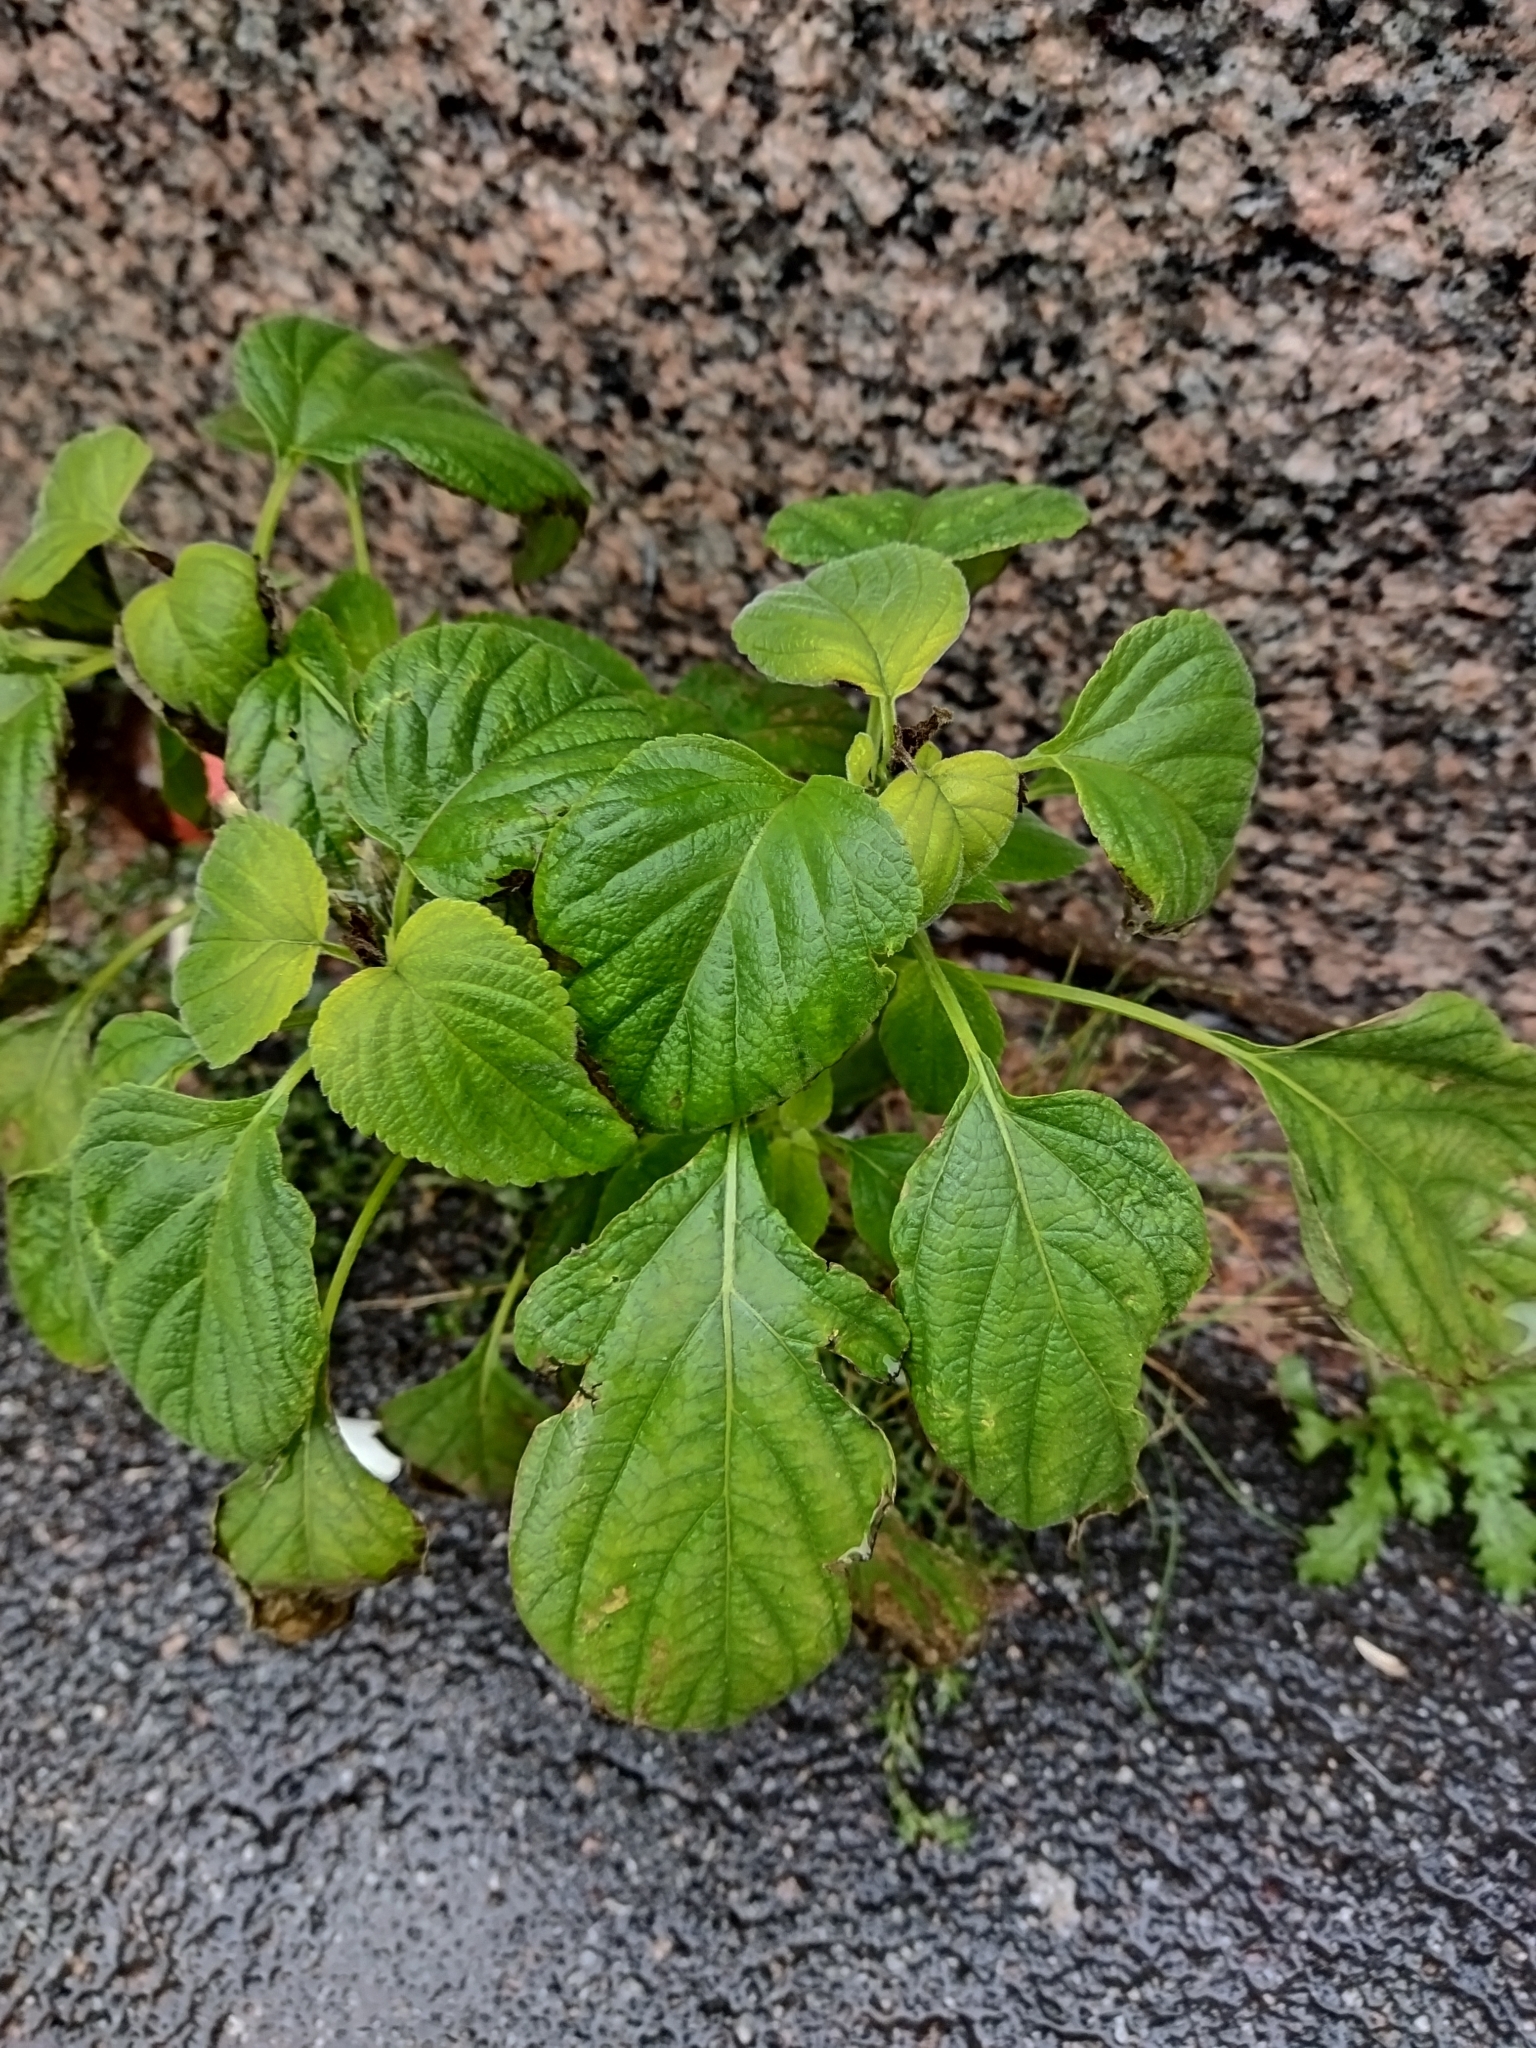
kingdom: Plantae
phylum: Tracheophyta
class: Magnoliopsida
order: Lamiales
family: Lamiaceae
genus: Salvia
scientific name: Salvia hispanica
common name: Chia
